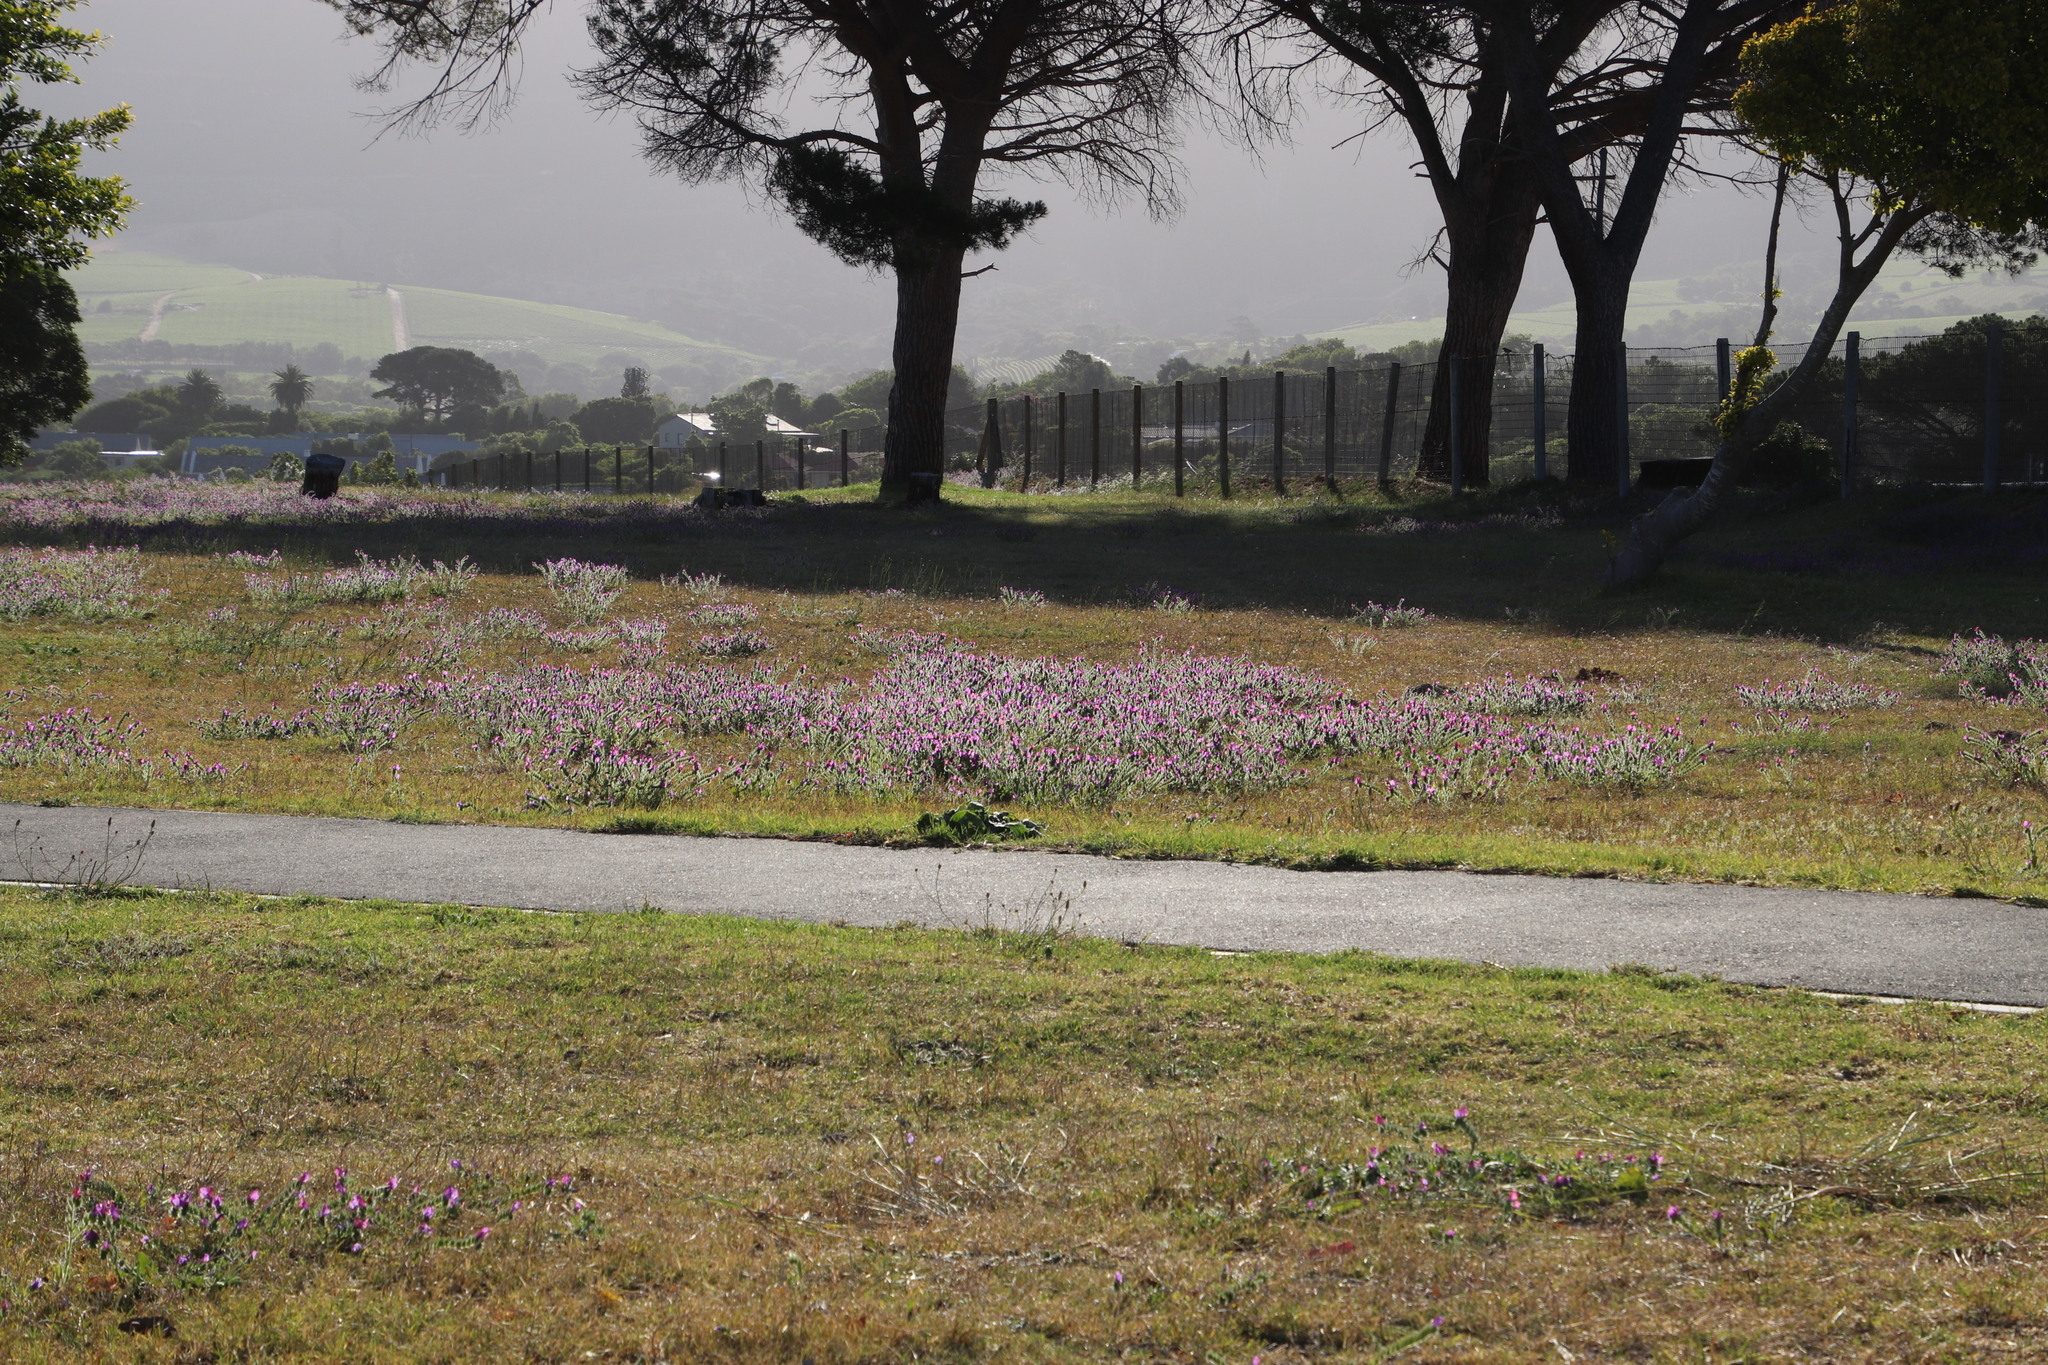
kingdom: Plantae
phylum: Tracheophyta
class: Magnoliopsida
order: Boraginales
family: Boraginaceae
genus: Echium
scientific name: Echium plantagineum
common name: Purple viper's-bugloss
